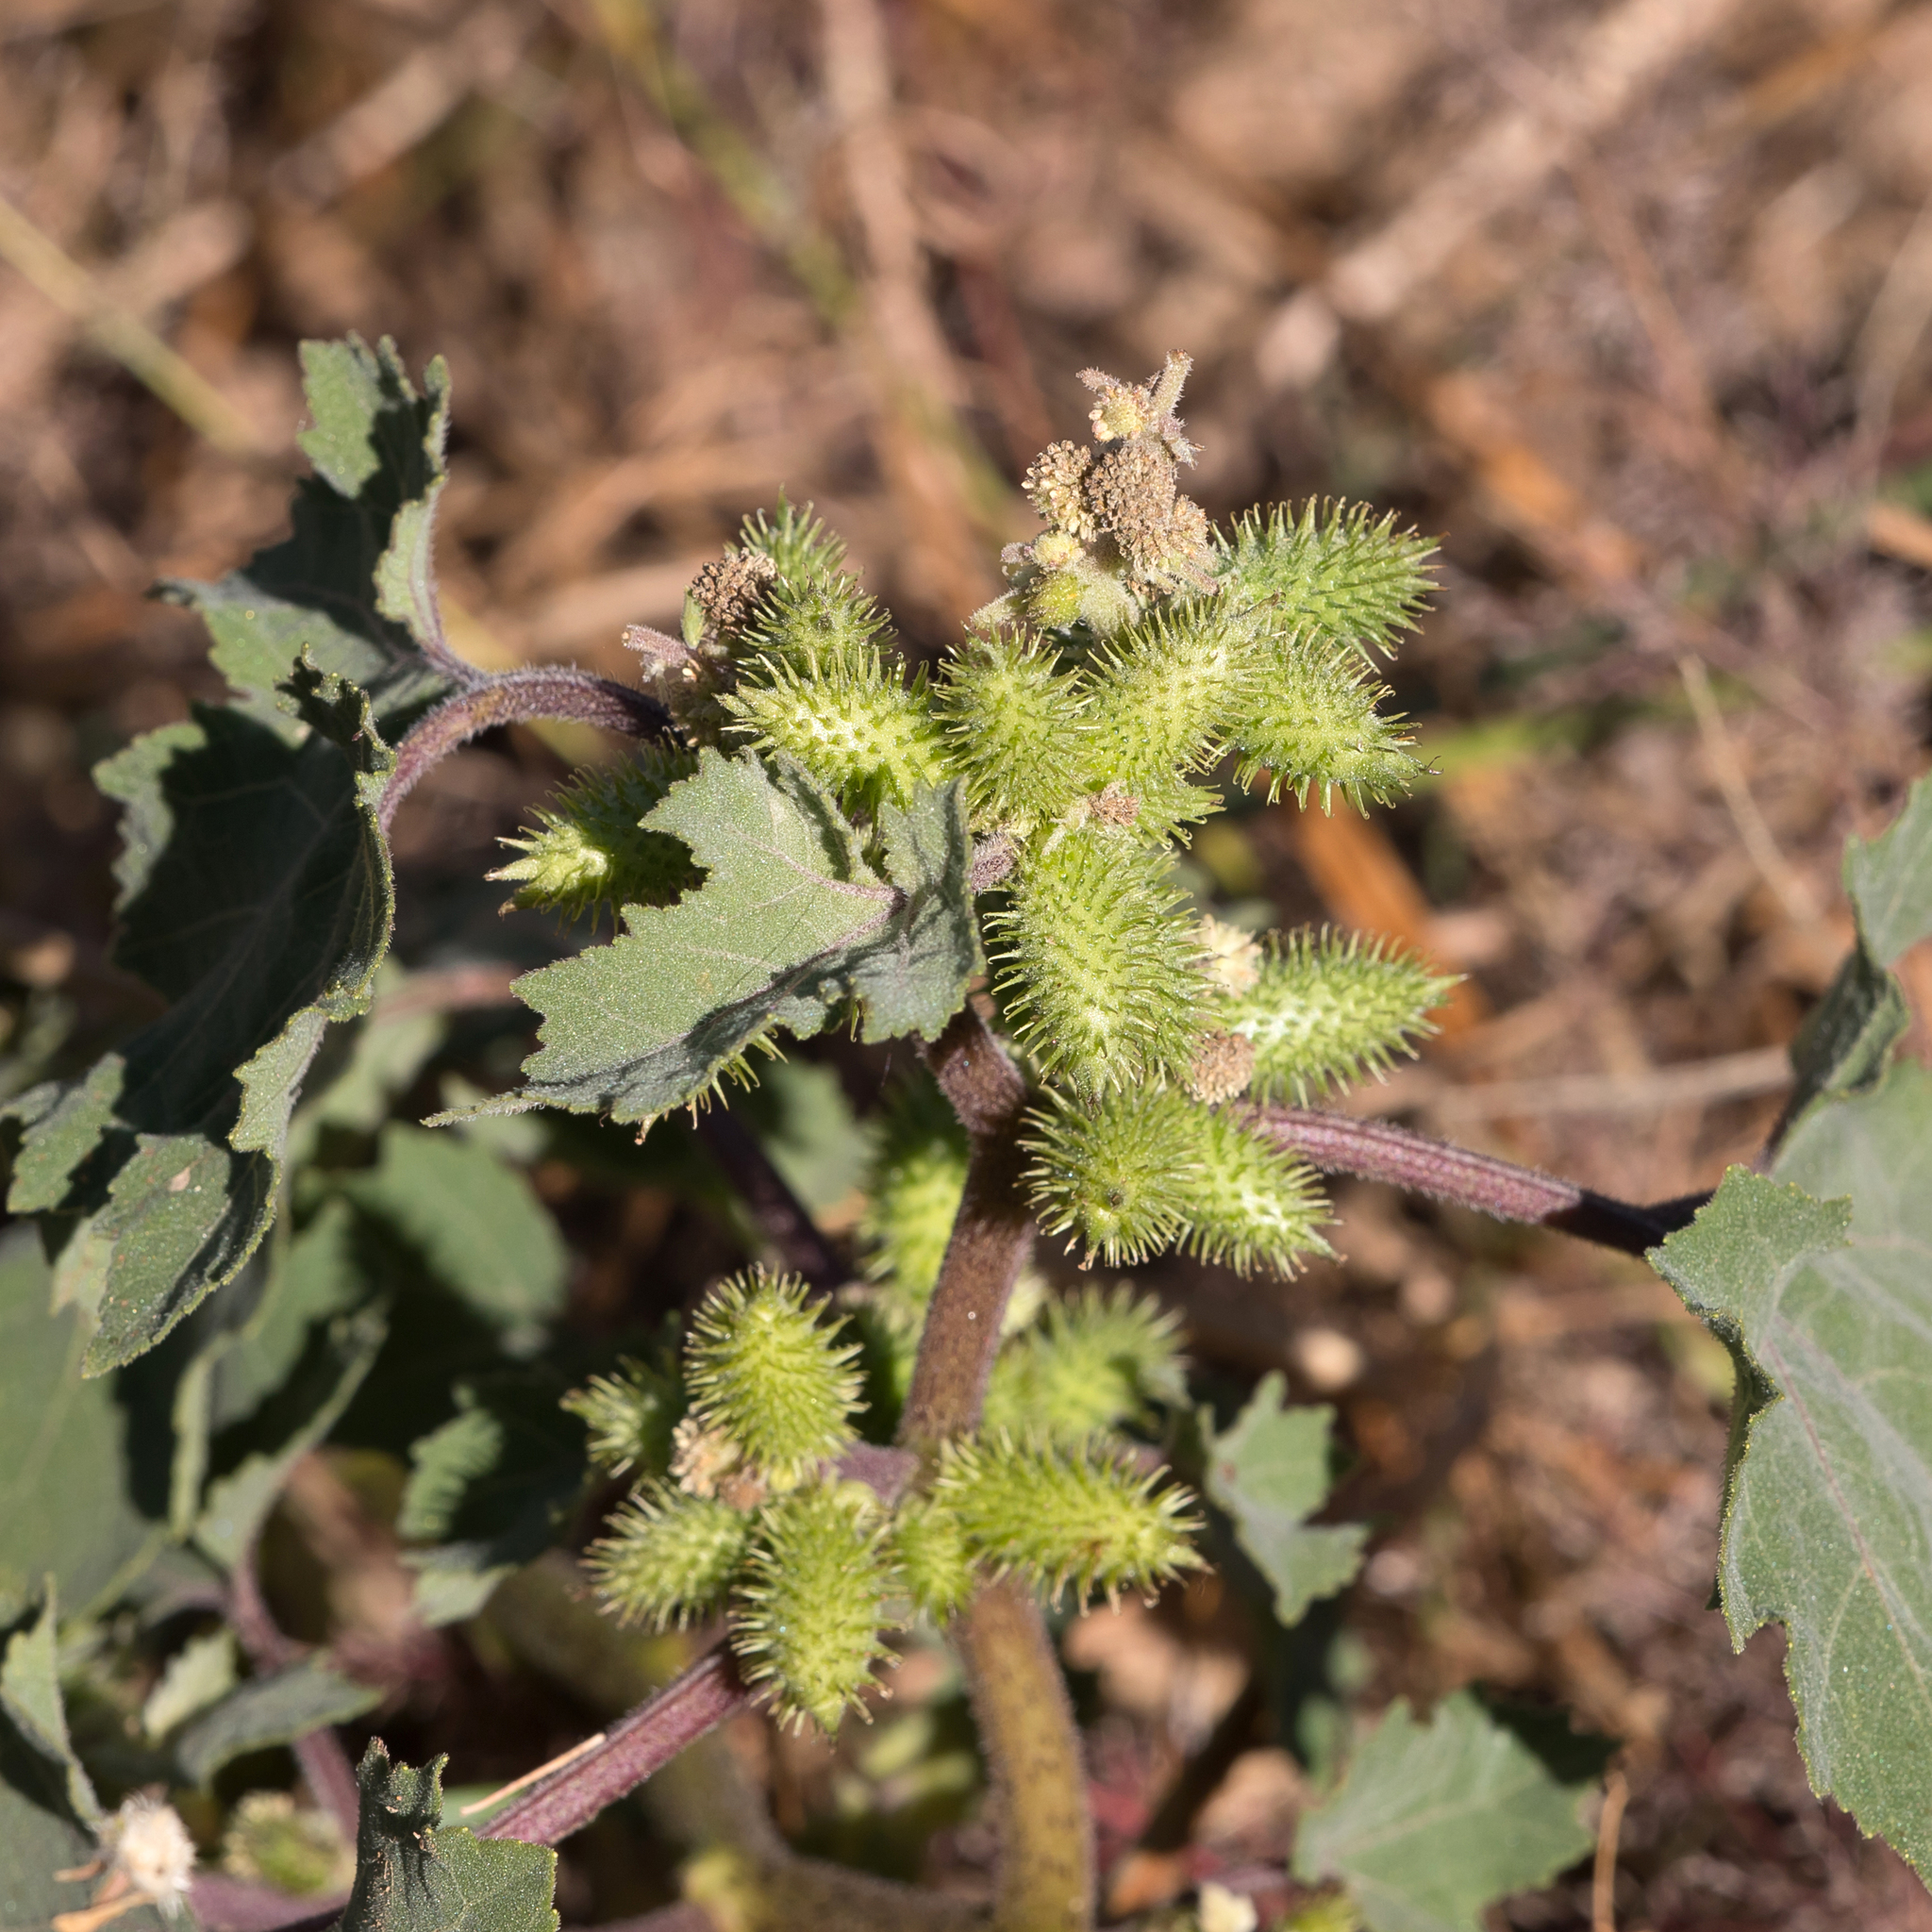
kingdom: Plantae
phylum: Tracheophyta
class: Magnoliopsida
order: Asterales
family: Asteraceae
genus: Xanthium
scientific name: Xanthium strumarium
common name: Rough cocklebur
